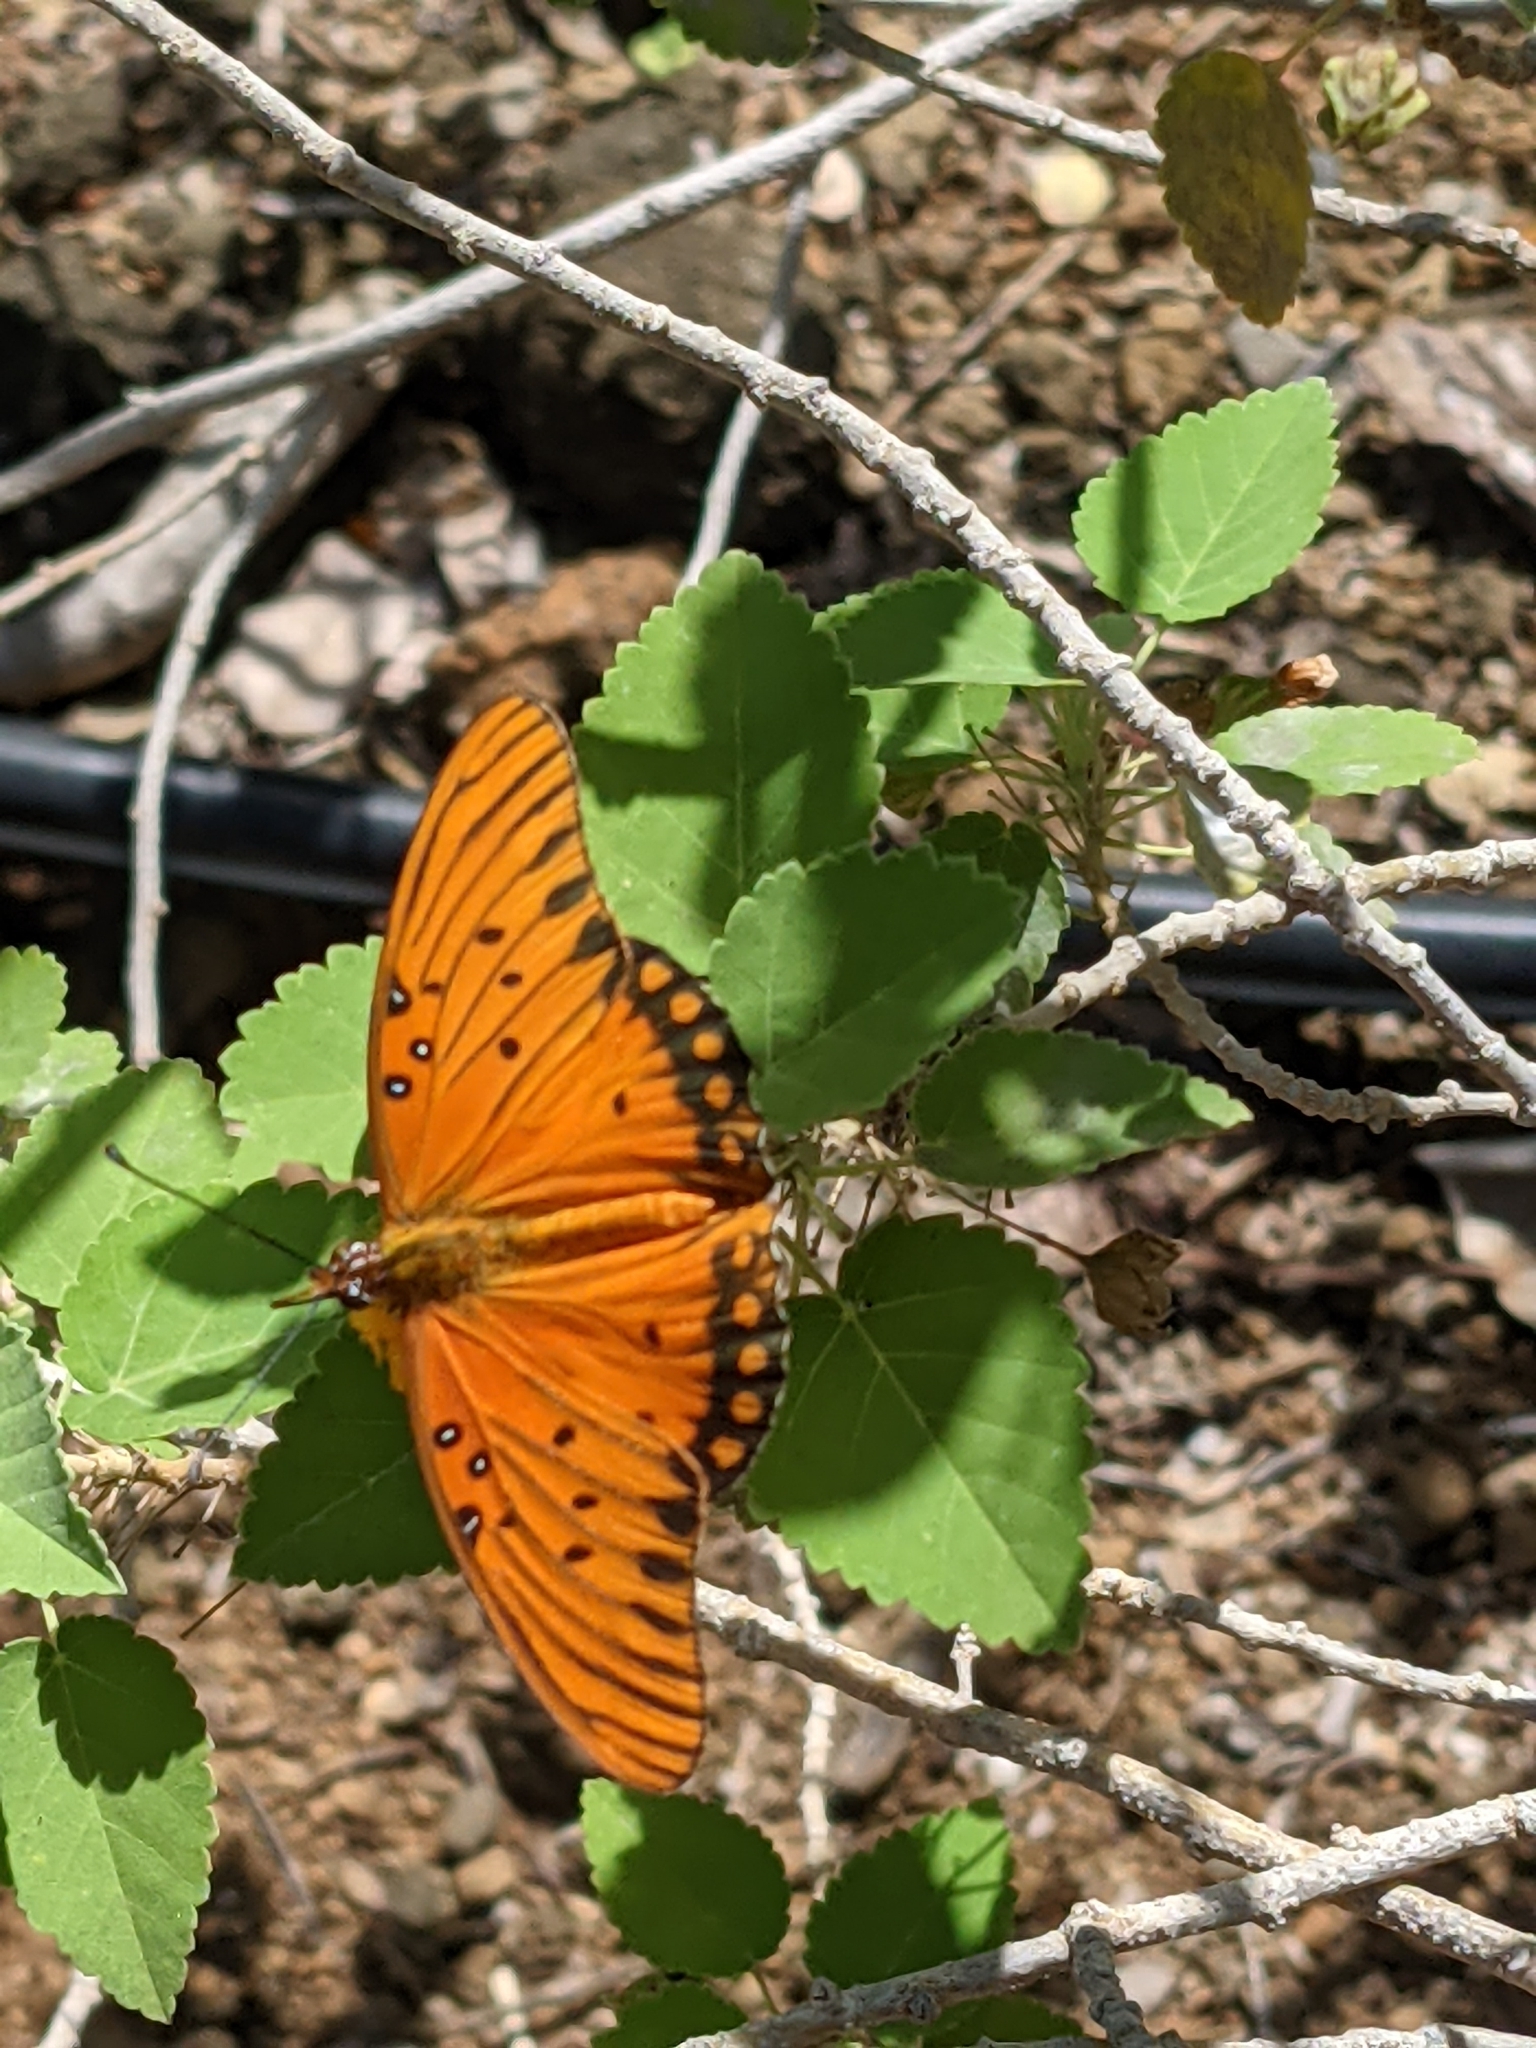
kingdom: Animalia
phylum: Arthropoda
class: Insecta
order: Lepidoptera
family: Nymphalidae
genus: Dione
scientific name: Dione vanillae
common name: Gulf fritillary
